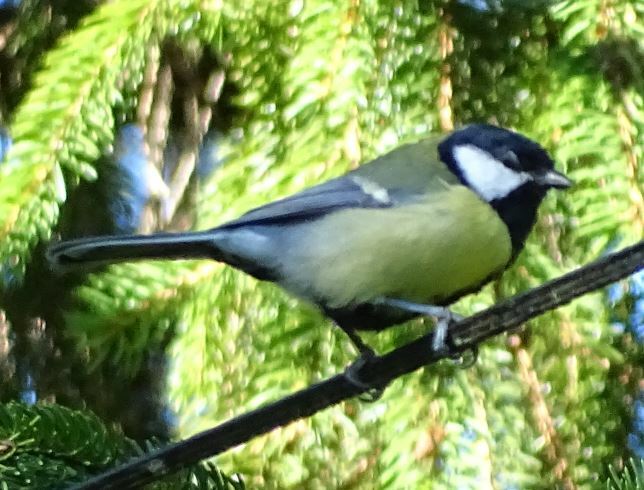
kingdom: Animalia
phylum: Chordata
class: Aves
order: Passeriformes
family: Paridae
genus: Parus
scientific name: Parus major
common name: Great tit
